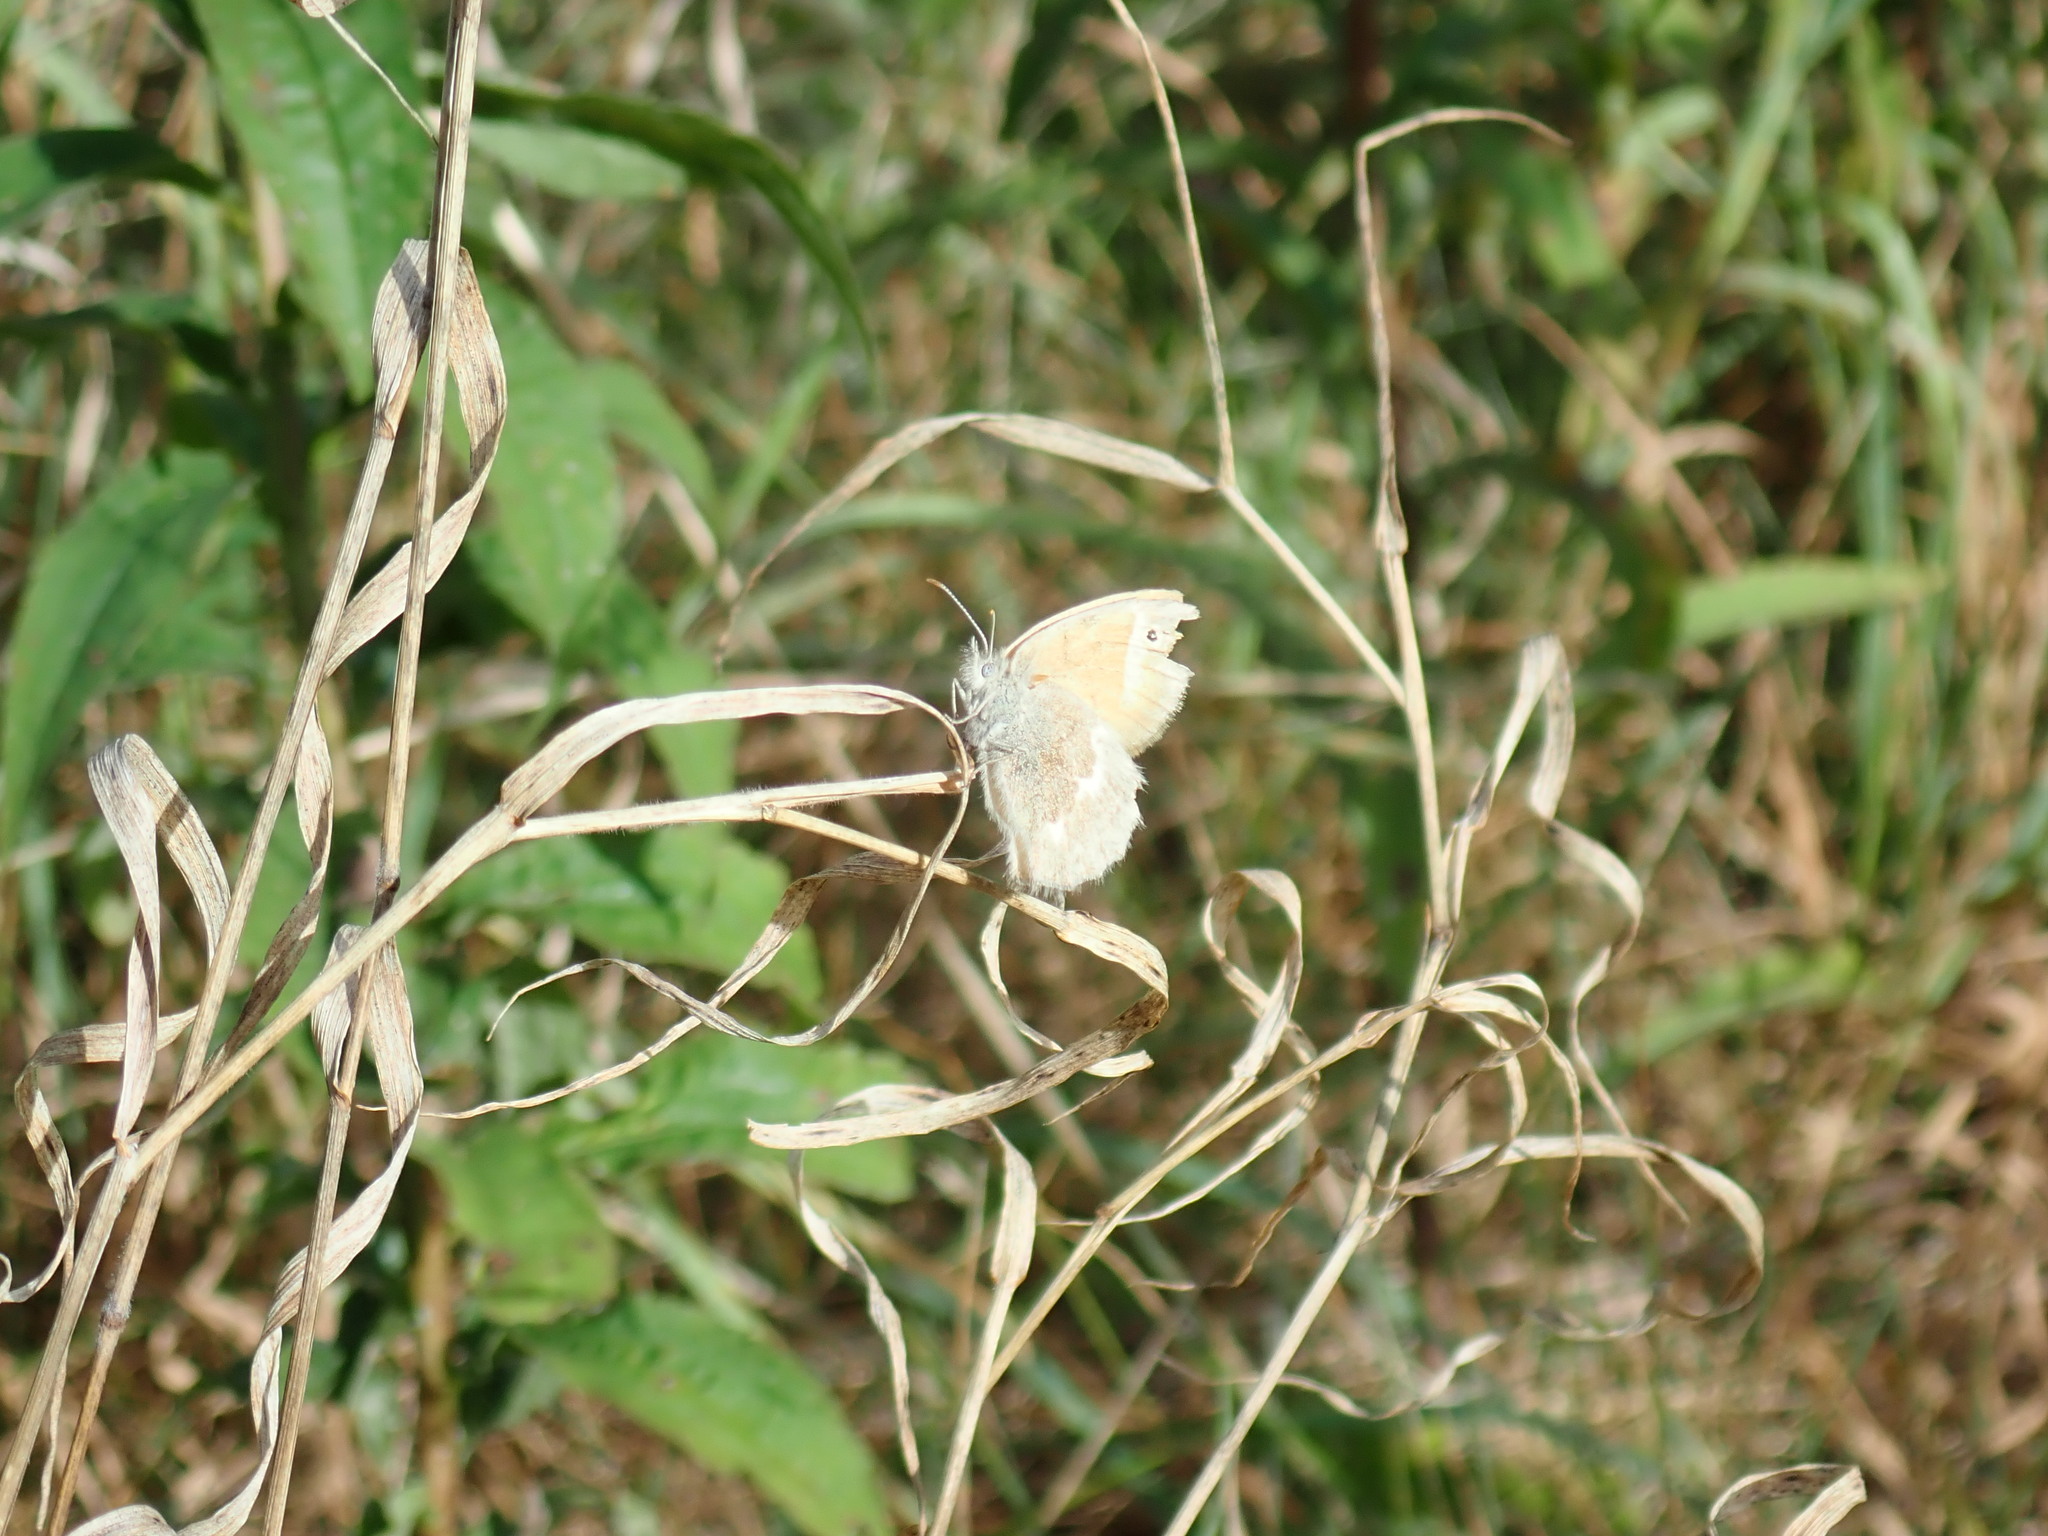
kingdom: Animalia
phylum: Arthropoda
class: Insecta
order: Lepidoptera
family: Nymphalidae
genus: Coenonympha
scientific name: Coenonympha california
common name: Common ringlet
